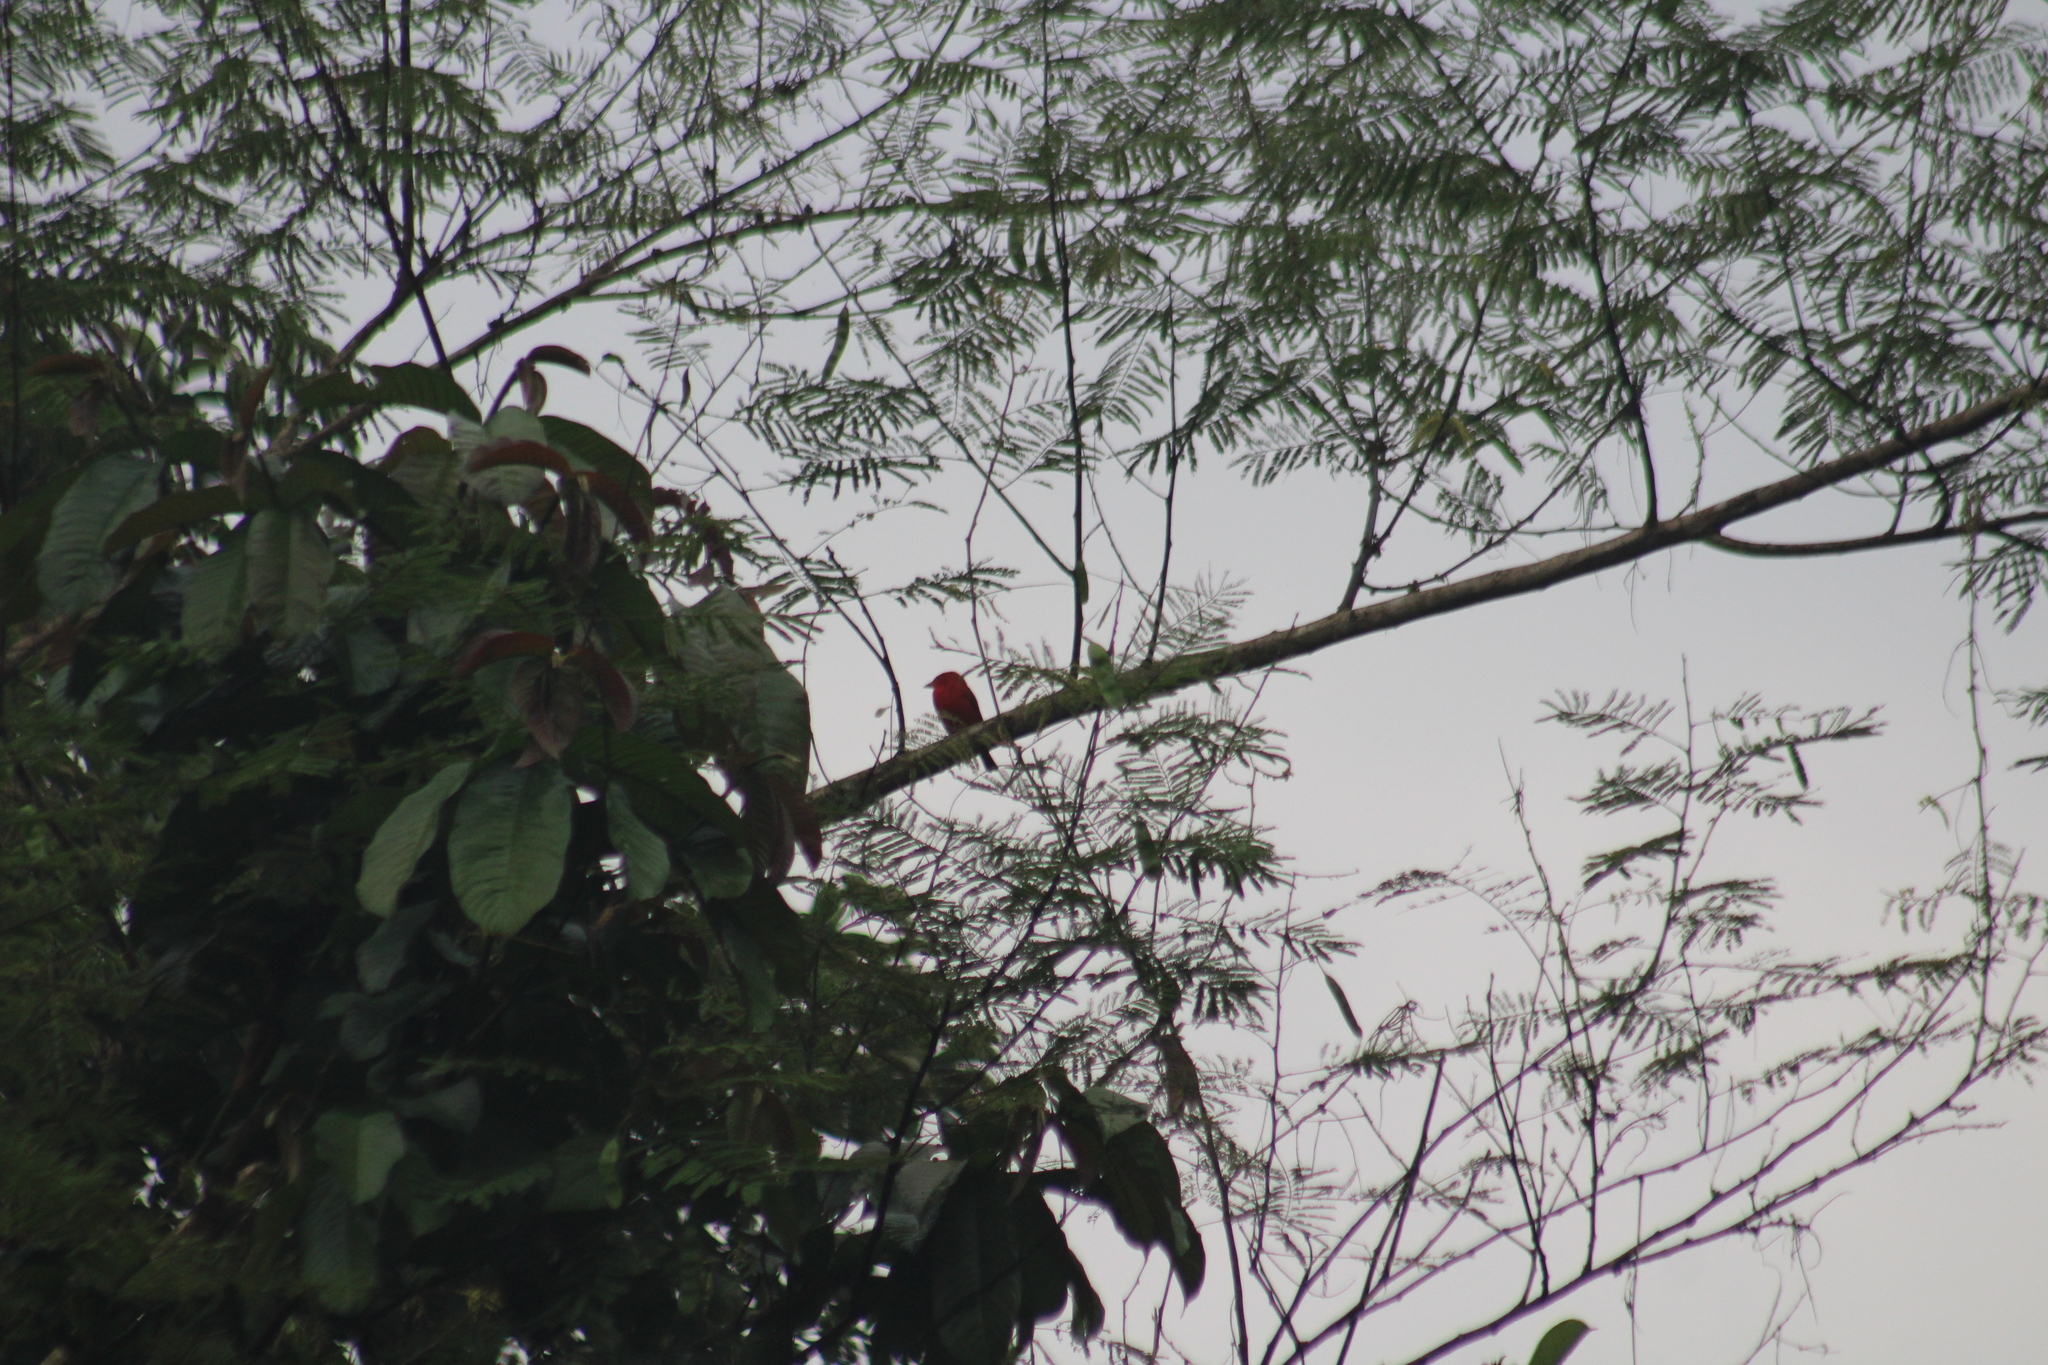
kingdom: Animalia
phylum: Chordata
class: Aves
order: Passeriformes
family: Cardinalidae
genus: Piranga
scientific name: Piranga rubra
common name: Summer tanager
